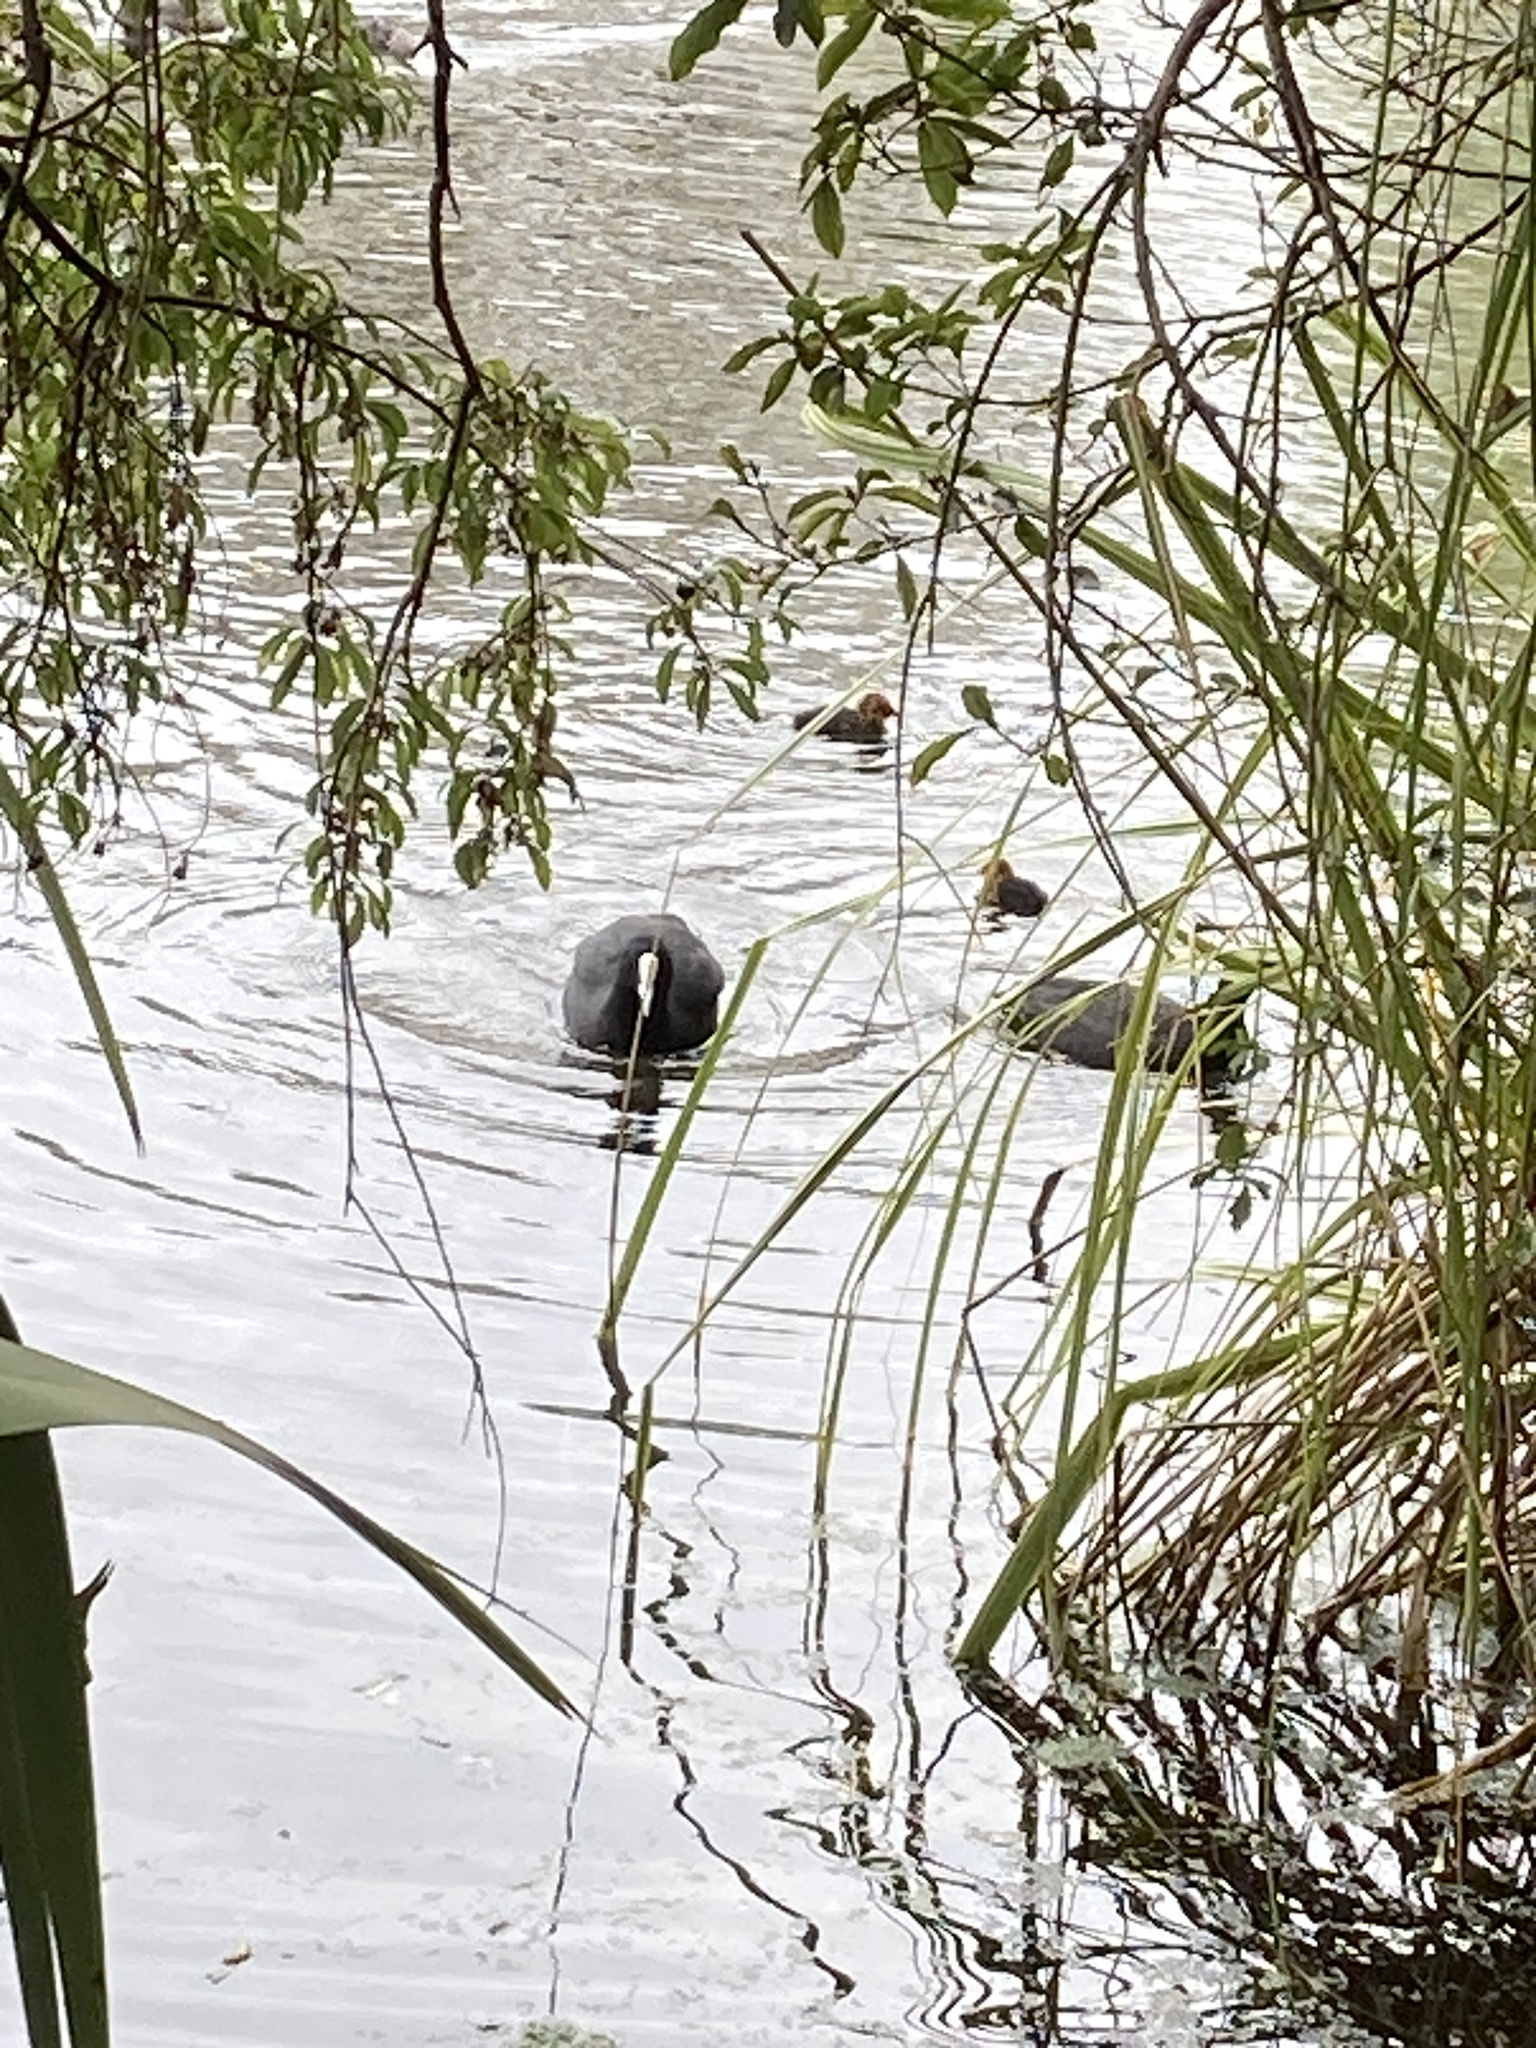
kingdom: Animalia
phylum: Chordata
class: Aves
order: Gruiformes
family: Rallidae
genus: Fulica
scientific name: Fulica atra
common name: Eurasian coot
